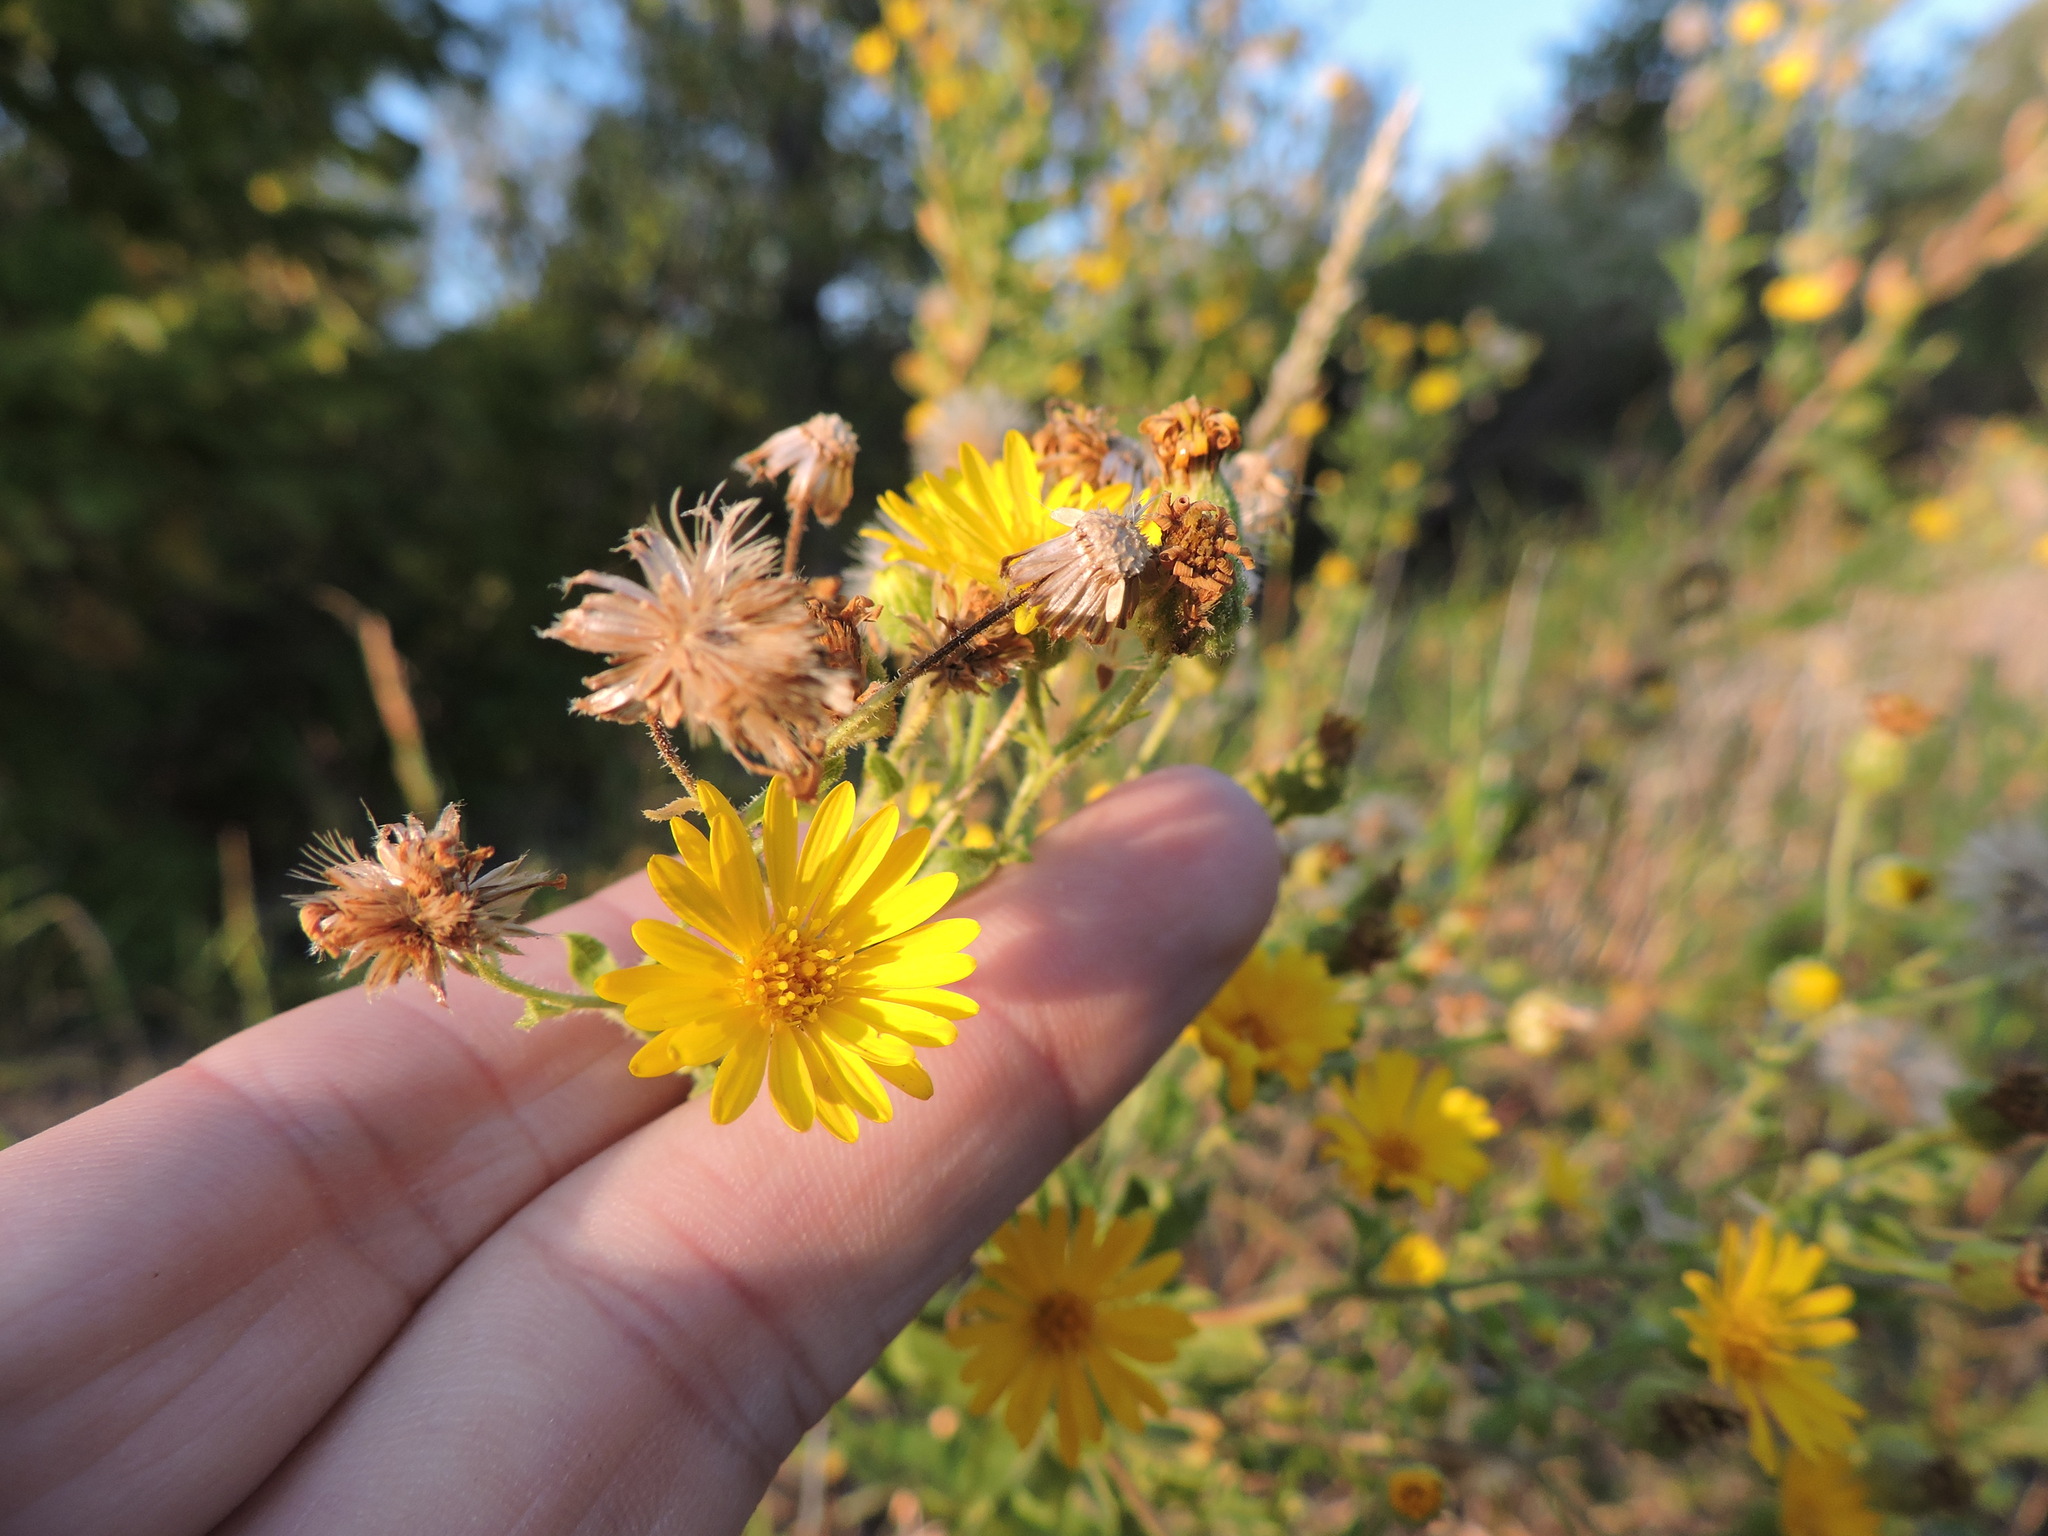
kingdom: Plantae
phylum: Tracheophyta
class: Magnoliopsida
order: Asterales
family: Asteraceae
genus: Heterotheca
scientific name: Heterotheca subaxillaris
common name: Camphorweed
